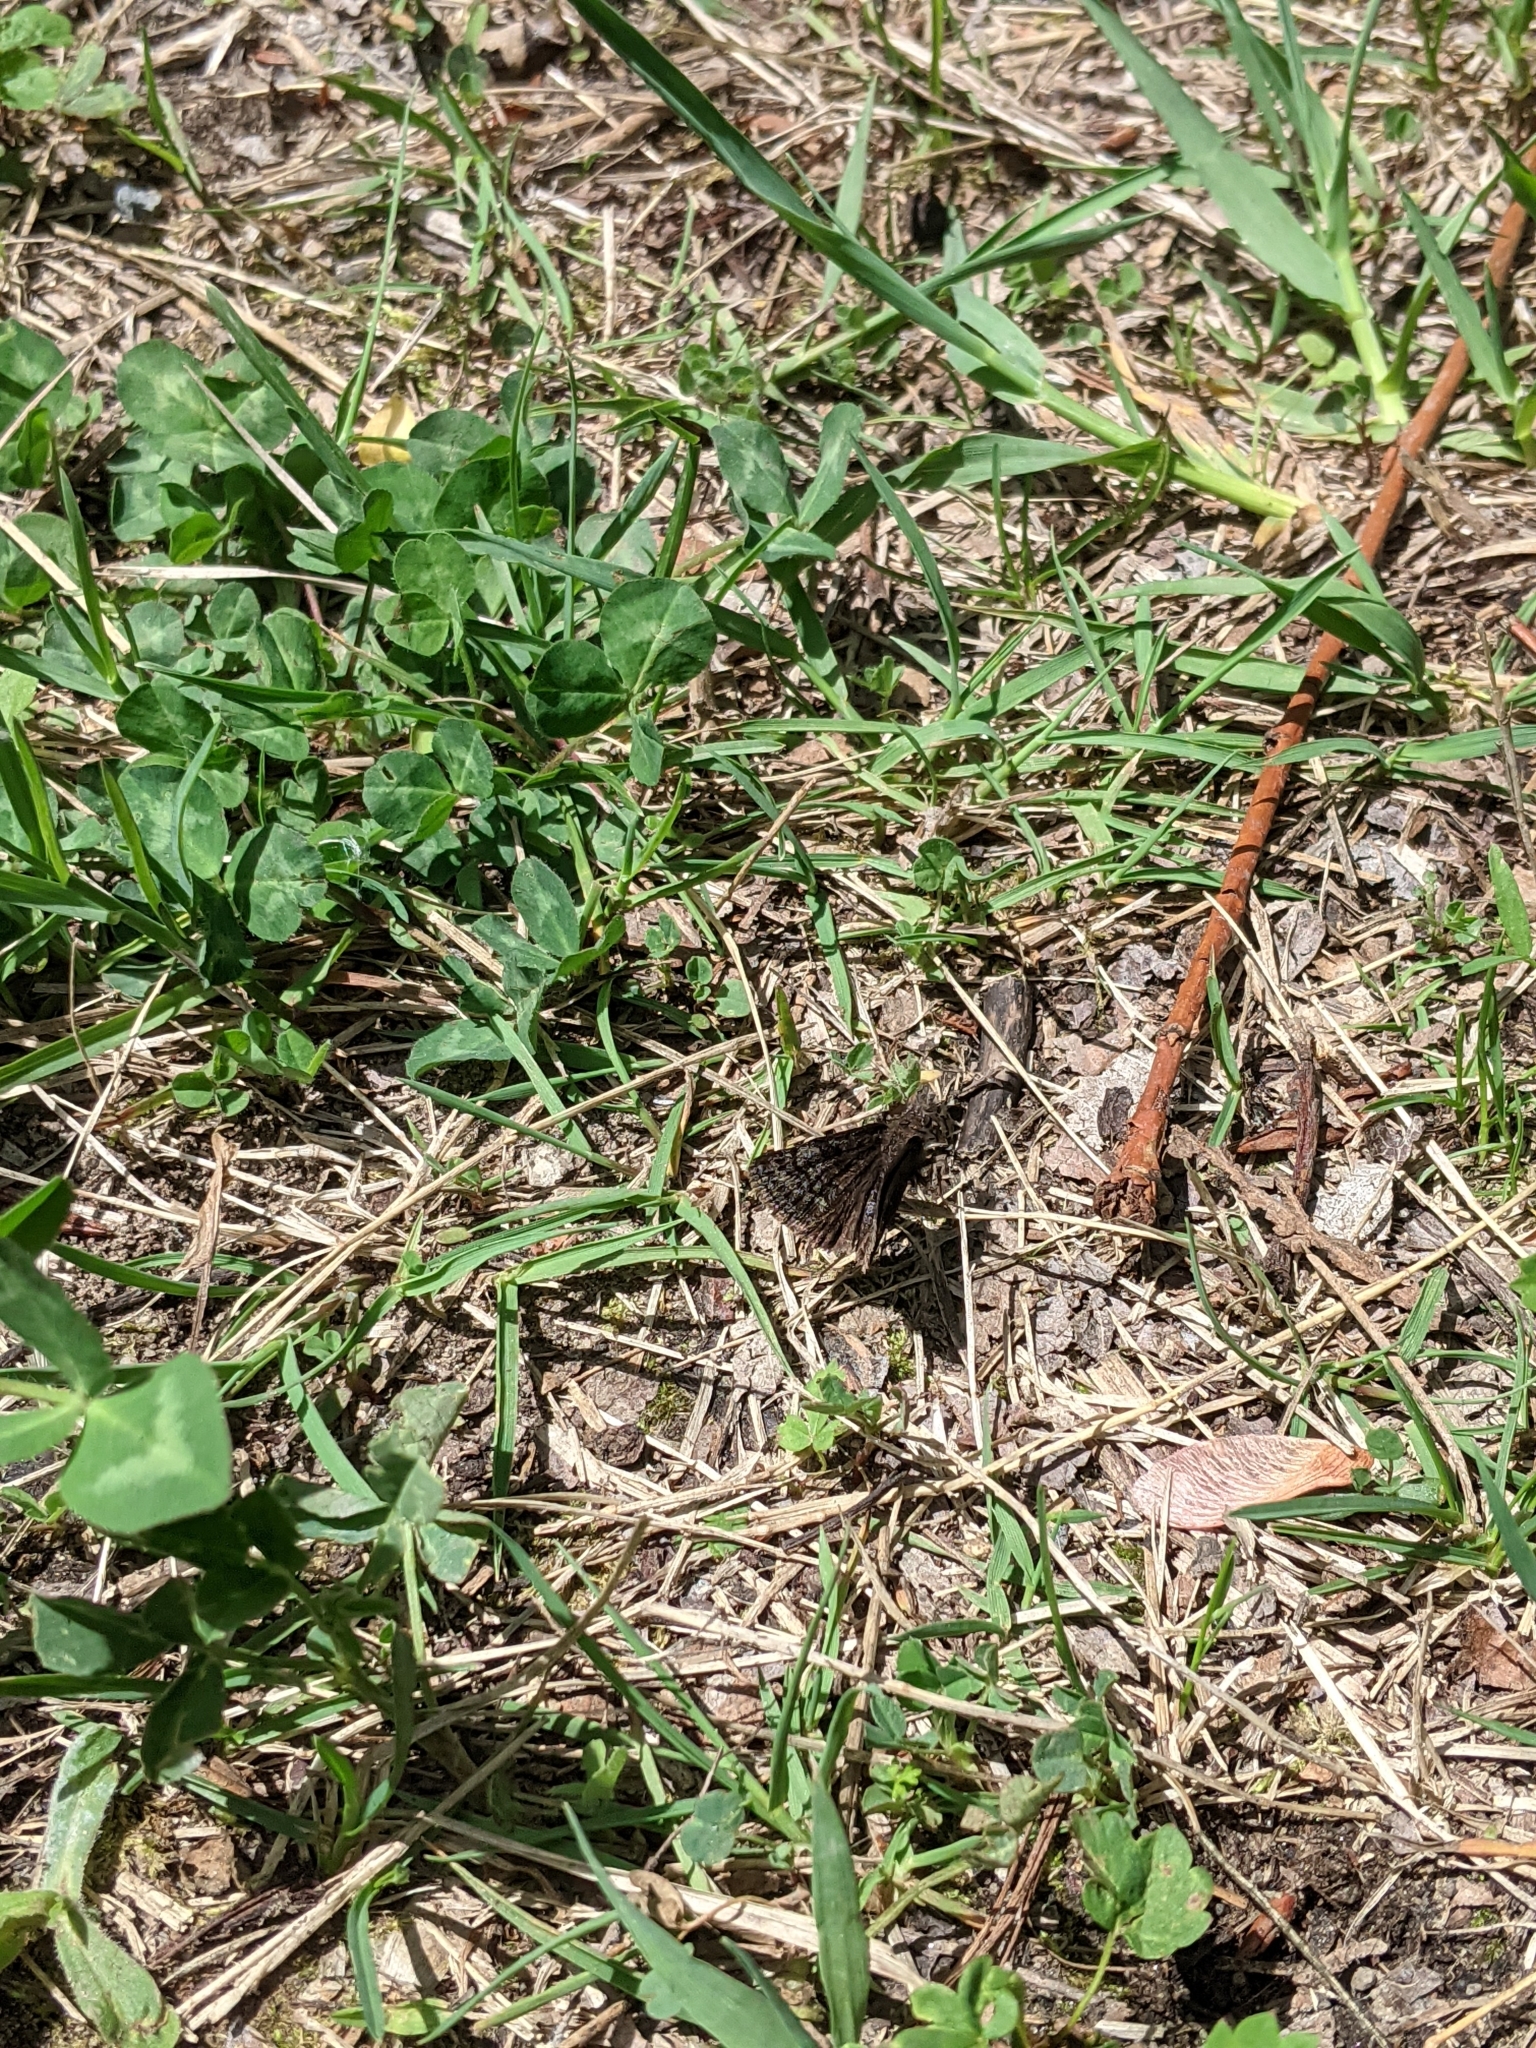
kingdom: Animalia
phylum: Arthropoda
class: Insecta
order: Lepidoptera
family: Hesperiidae
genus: Erynnis
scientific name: Erynnis icelus
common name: Dreamy duskywing
